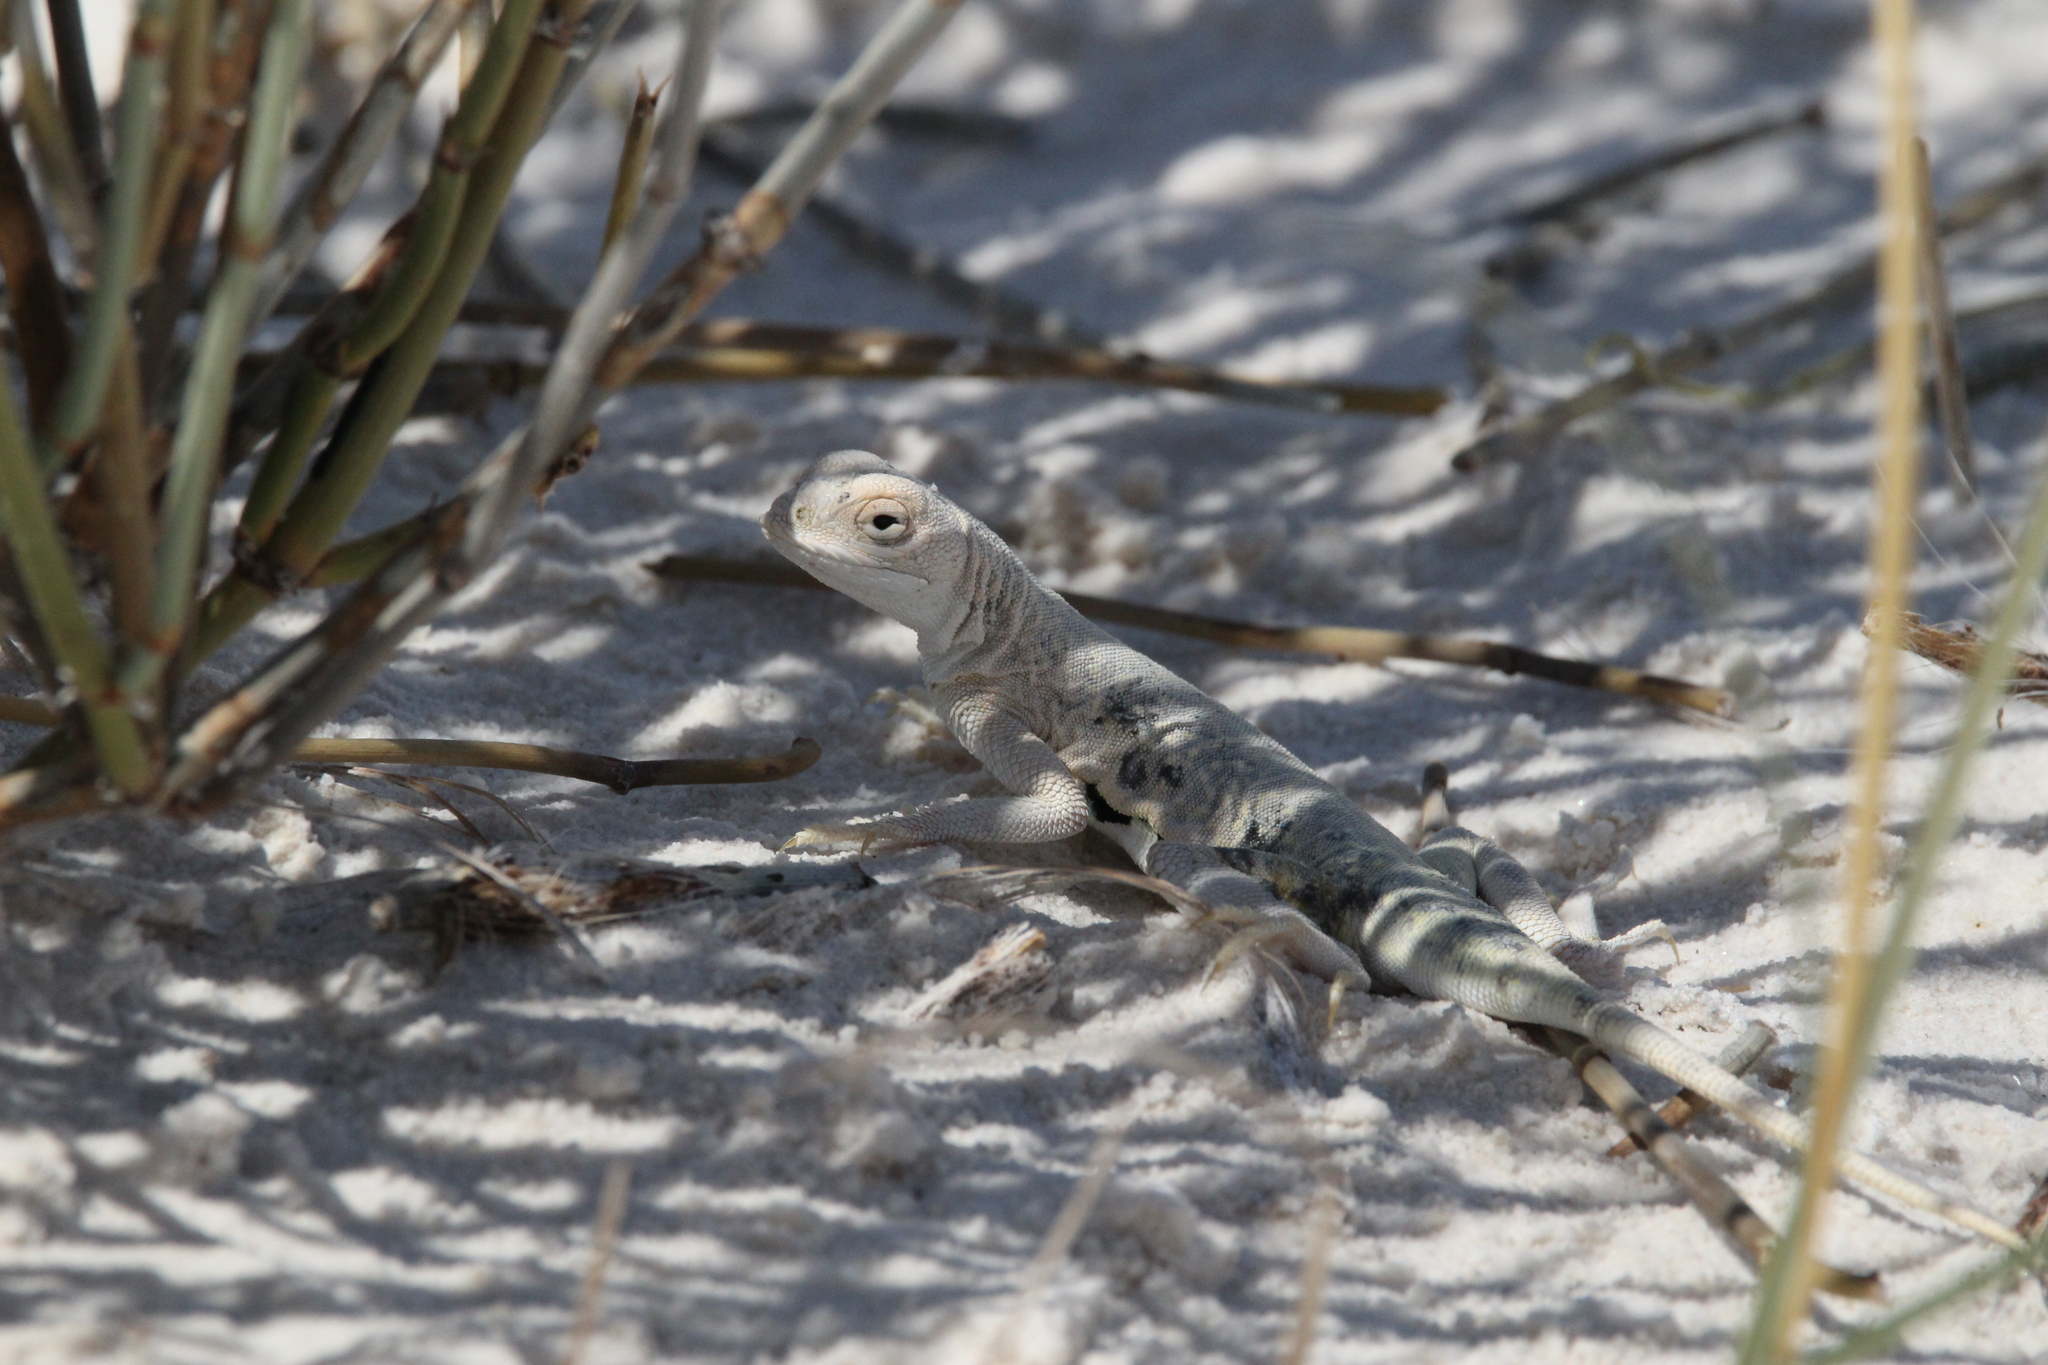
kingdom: Animalia
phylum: Chordata
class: Squamata
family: Phrynosomatidae
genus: Holbrookia
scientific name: Holbrookia maculata
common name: Lesser earless lizard
